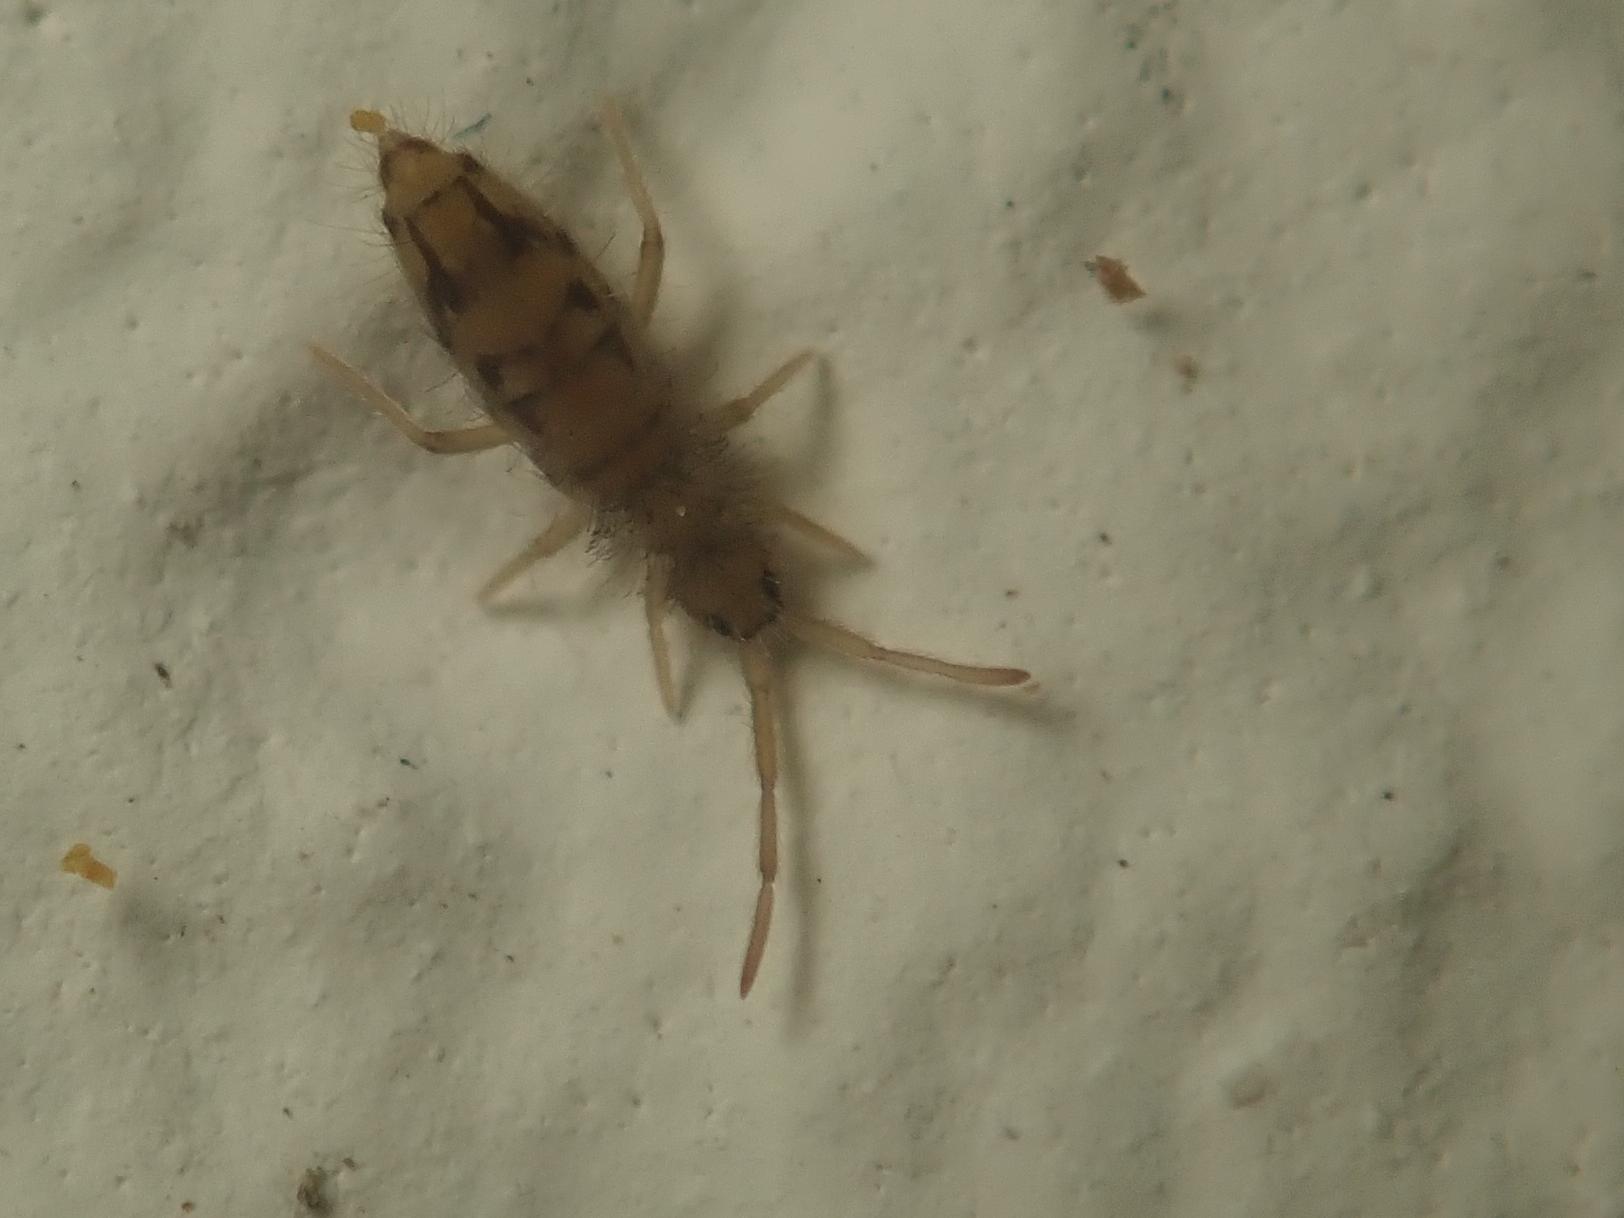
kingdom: Animalia
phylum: Arthropoda
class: Collembola
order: Entomobryomorpha
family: Entomobryidae
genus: Entomobrya
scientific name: Entomobrya nivalis
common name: Cosmopolitan springtail
